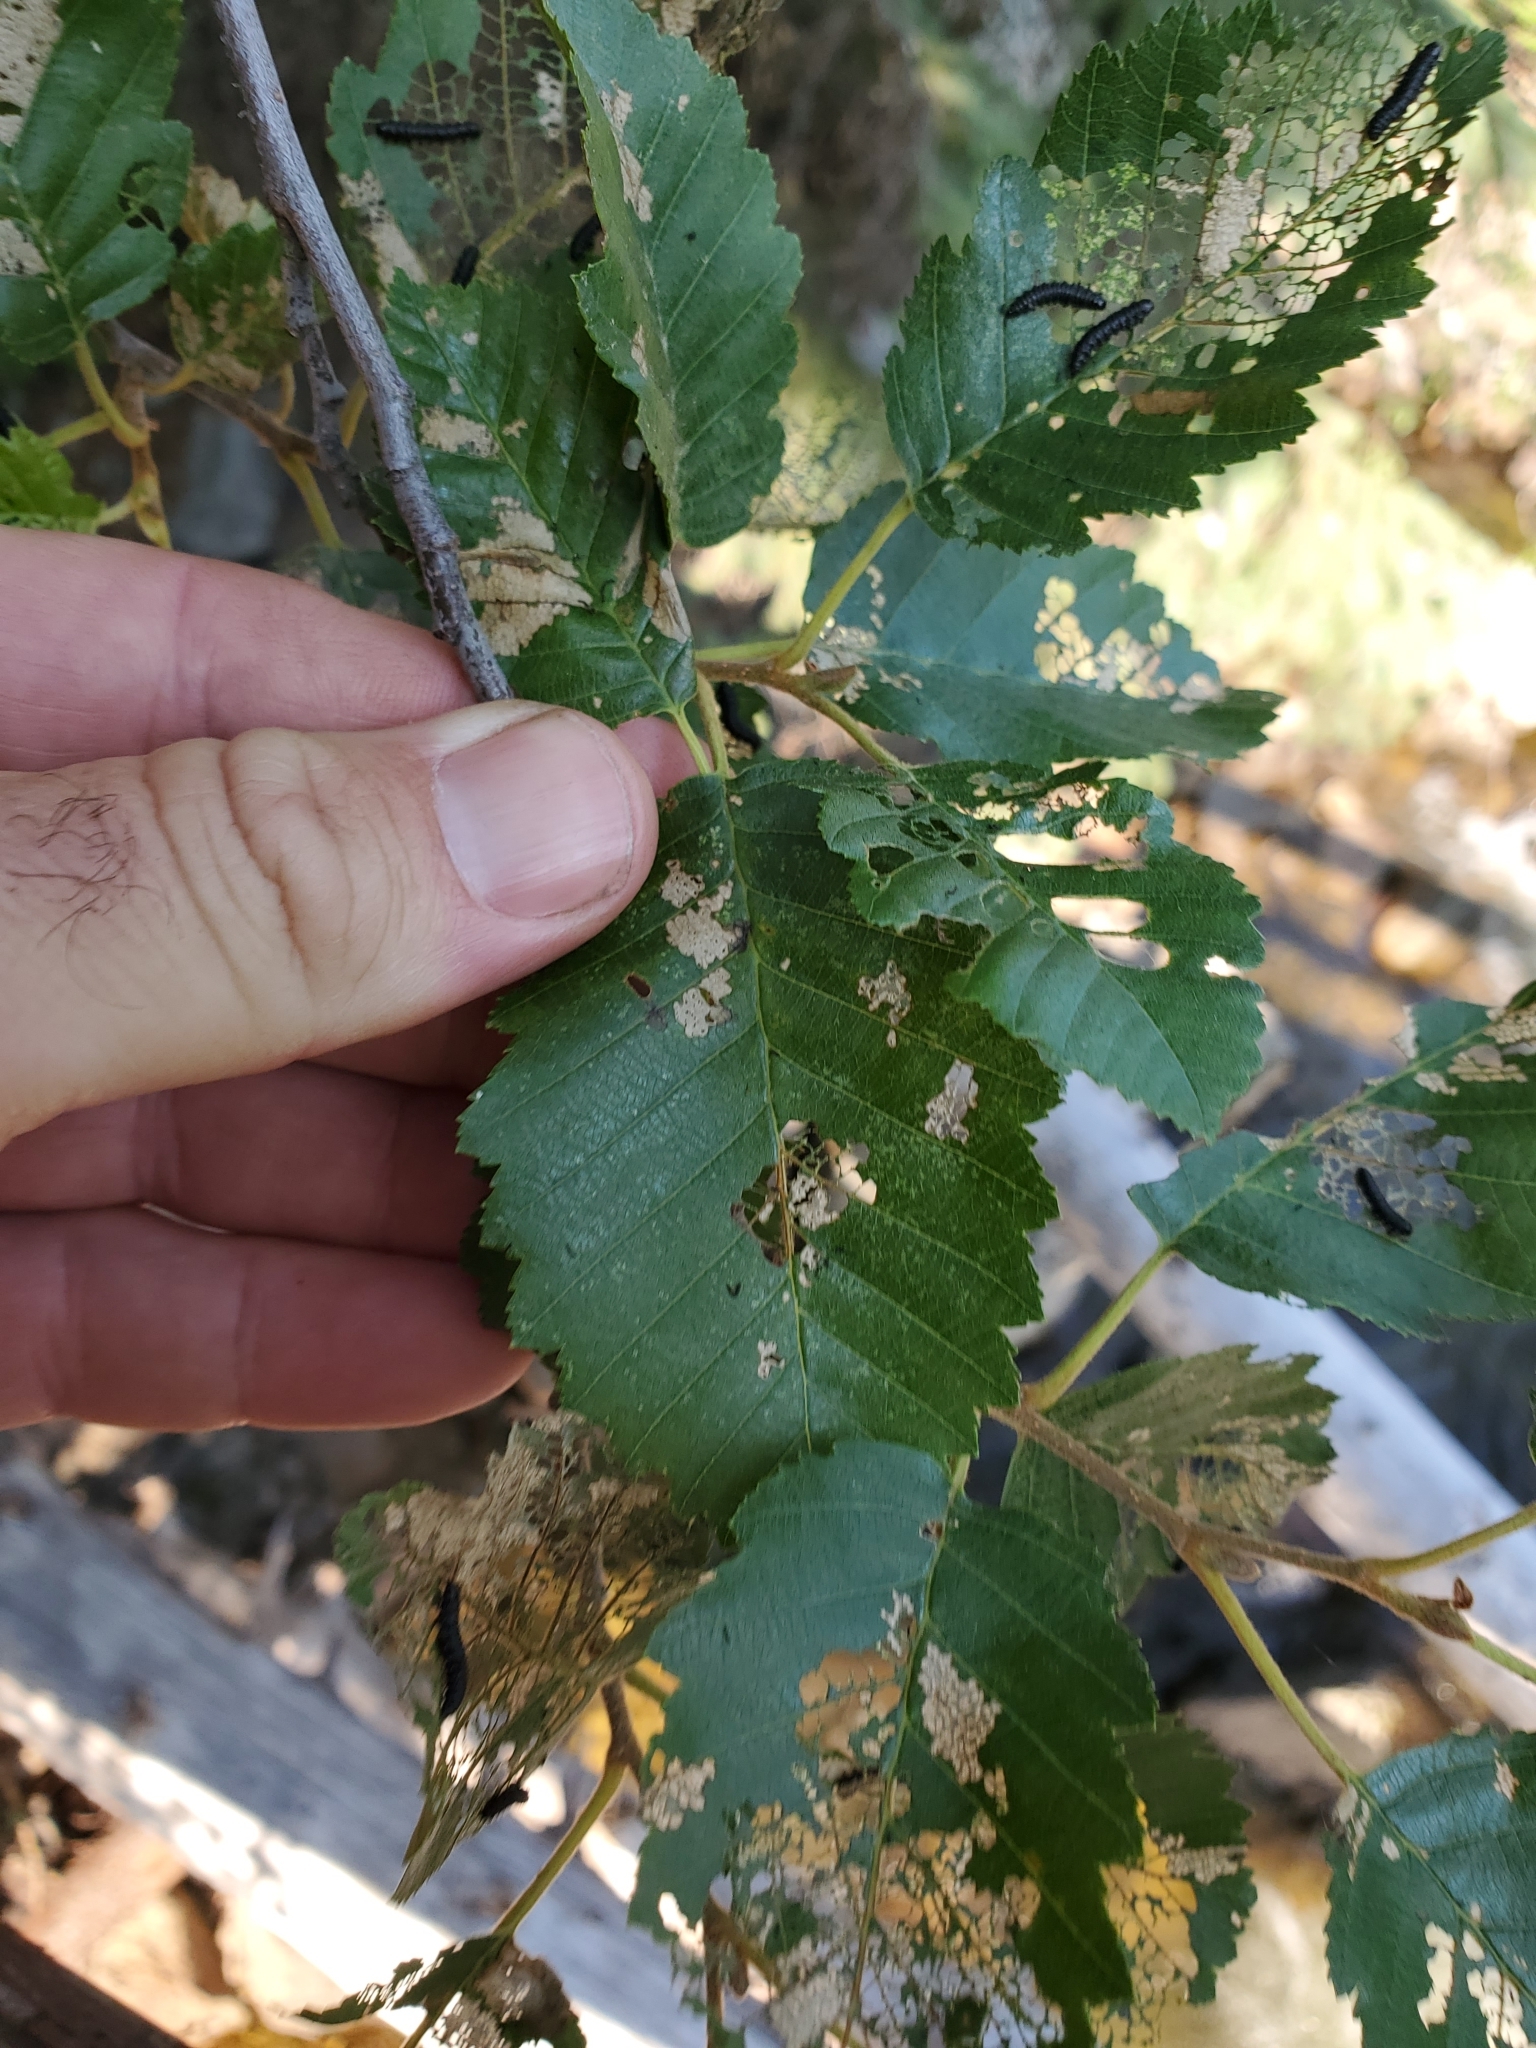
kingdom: Plantae
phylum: Tracheophyta
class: Magnoliopsida
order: Fagales
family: Betulaceae
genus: Alnus
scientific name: Alnus incana
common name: Grey alder
